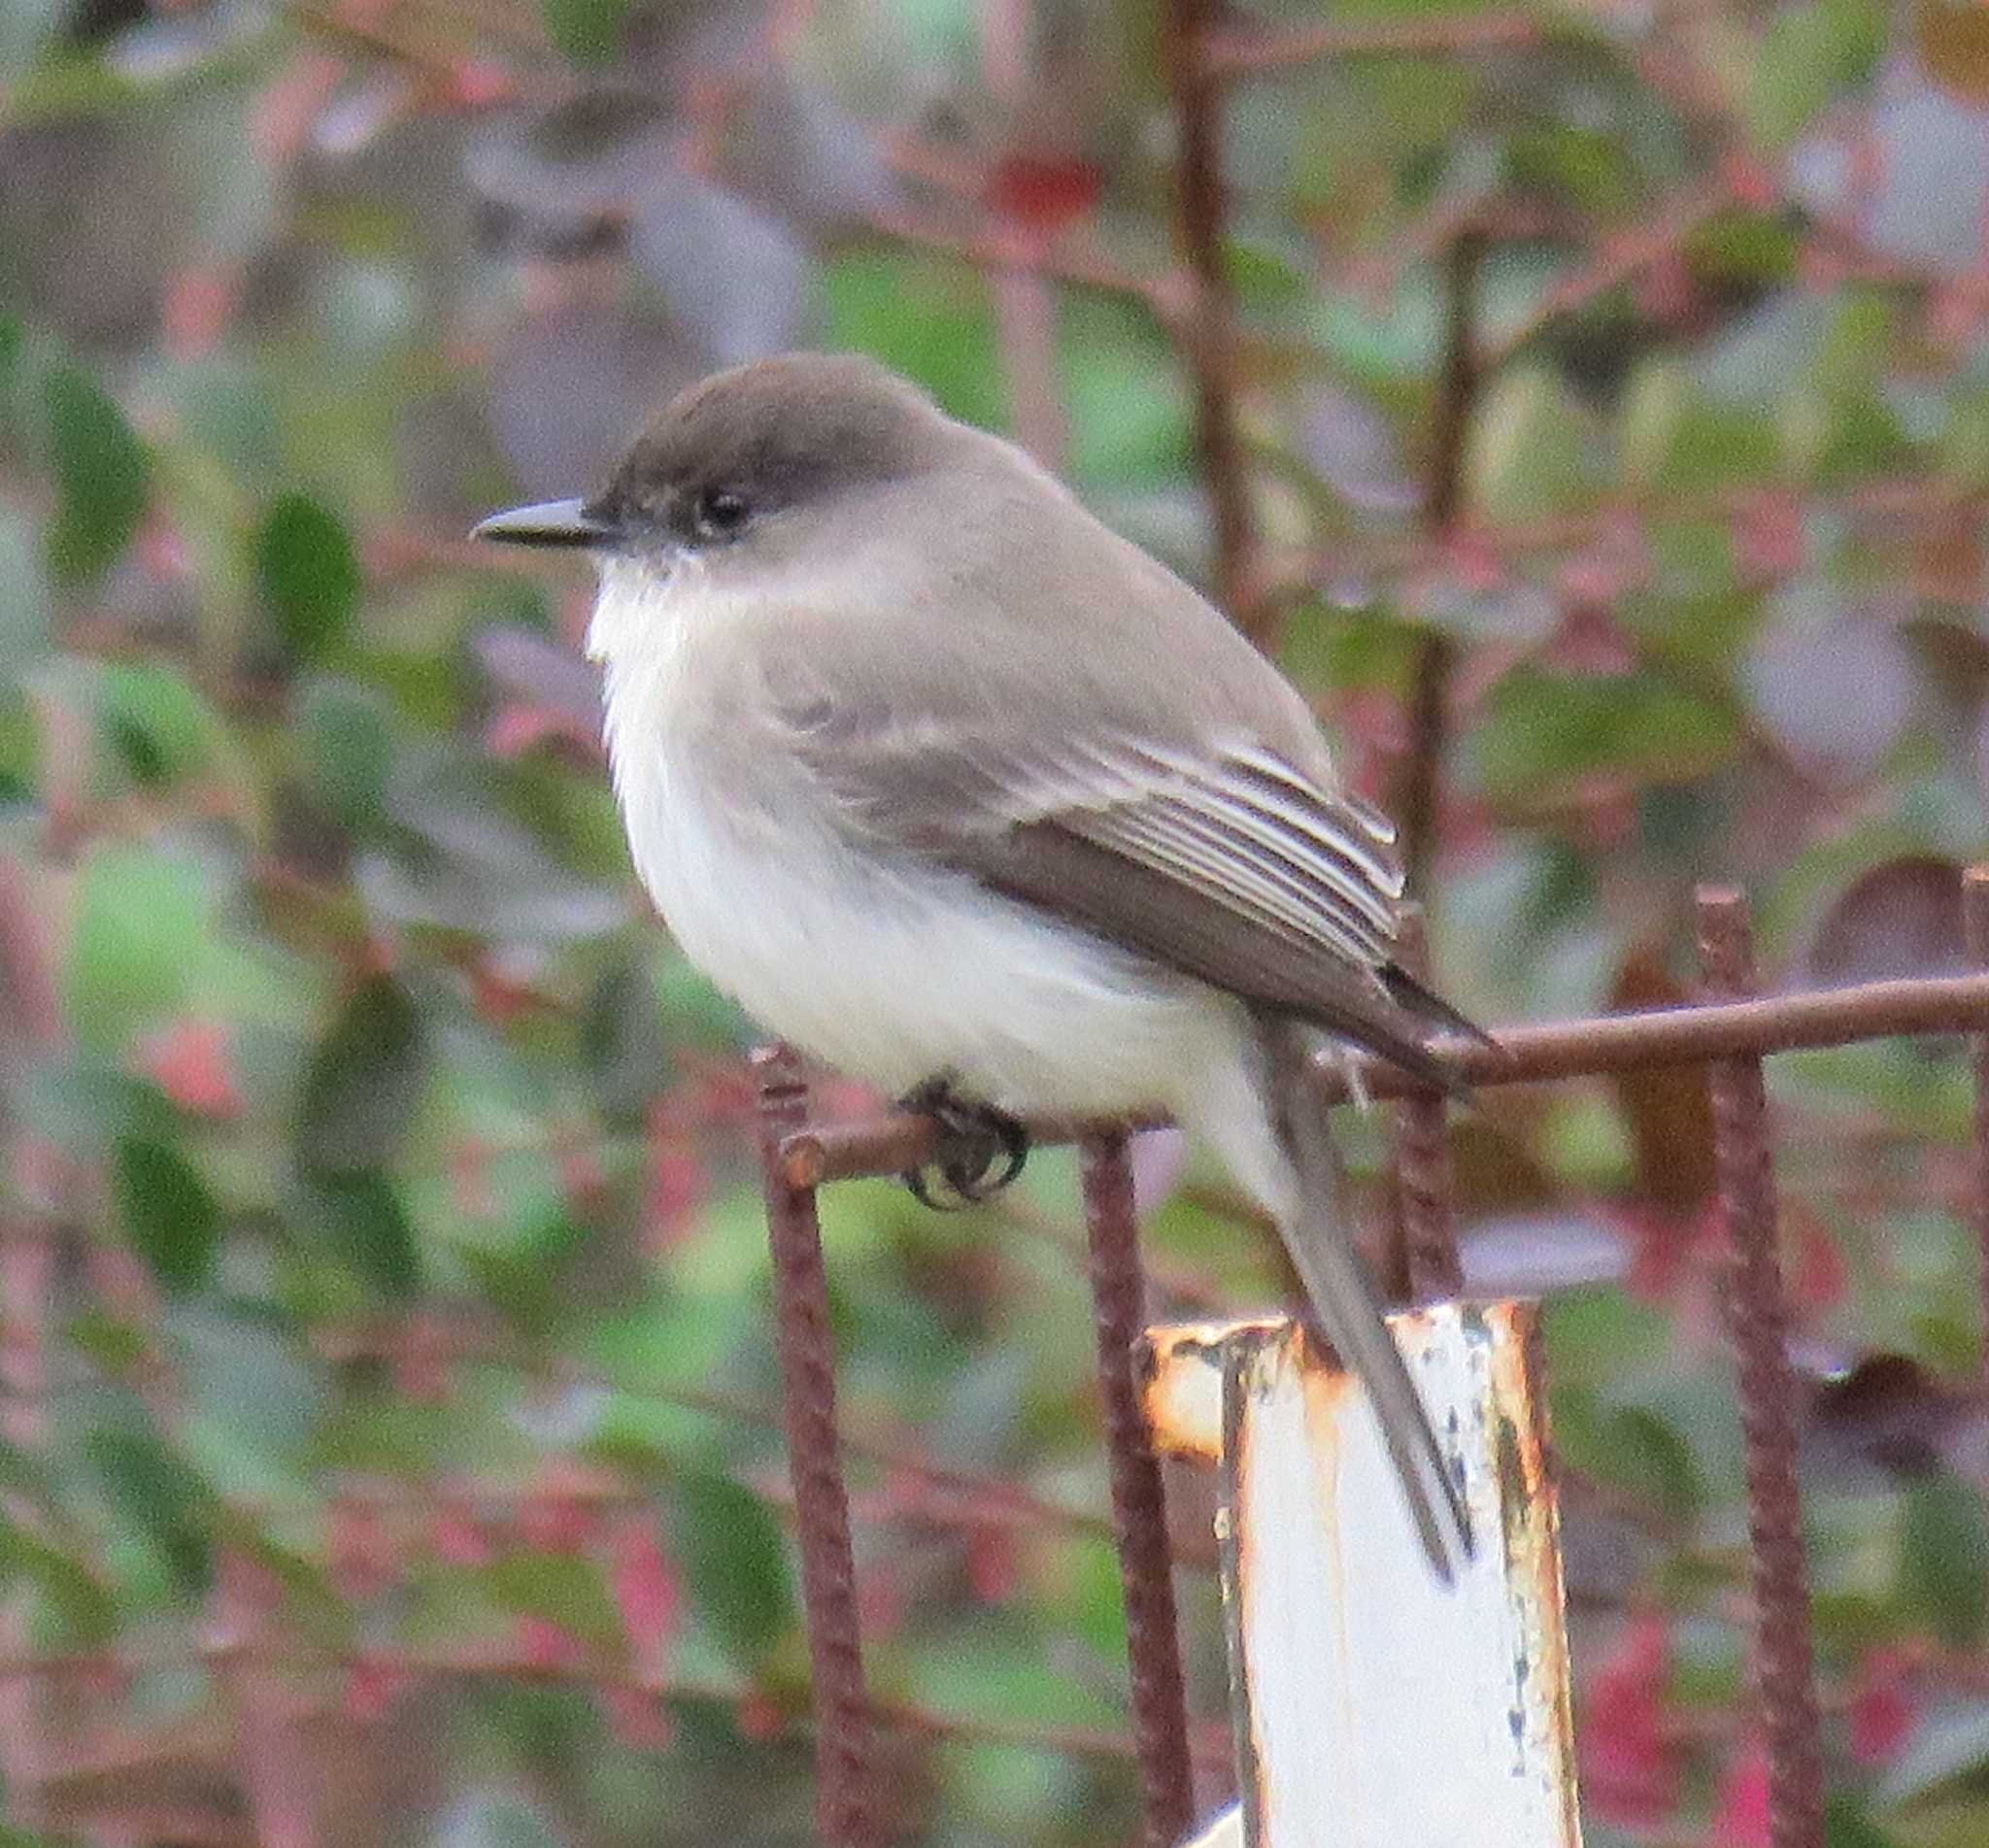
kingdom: Animalia
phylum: Chordata
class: Aves
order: Passeriformes
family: Tyrannidae
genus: Sayornis
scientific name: Sayornis phoebe
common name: Eastern phoebe
